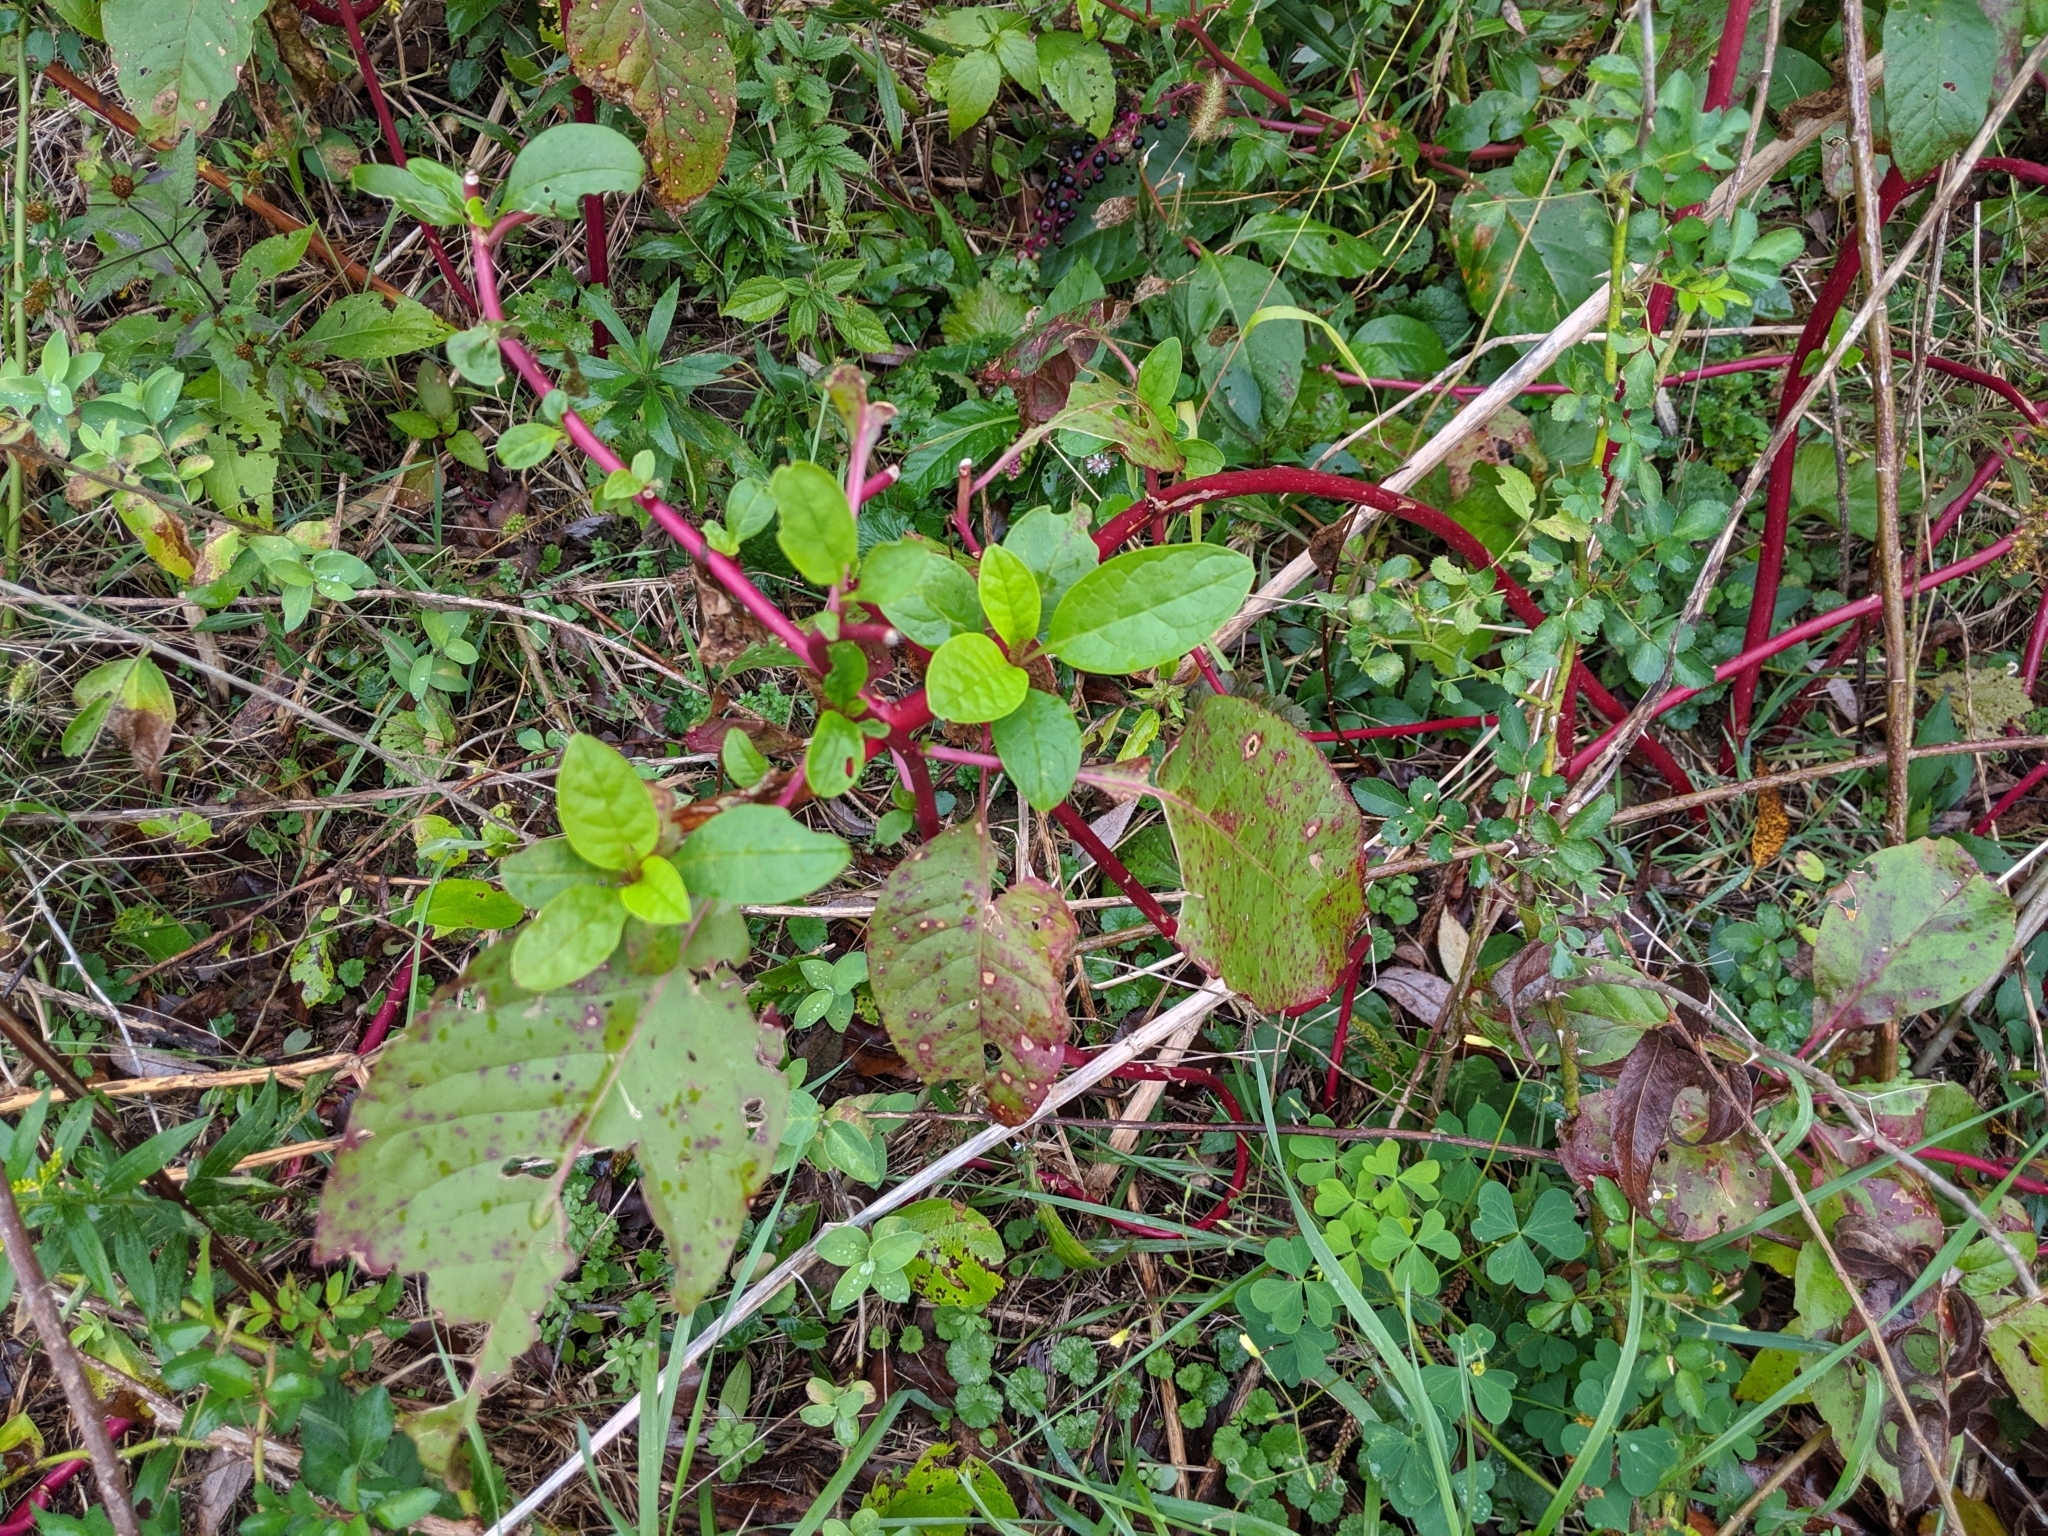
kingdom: Plantae
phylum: Tracheophyta
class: Magnoliopsida
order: Caryophyllales
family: Phytolaccaceae
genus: Phytolacca
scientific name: Phytolacca americana
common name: American pokeweed
